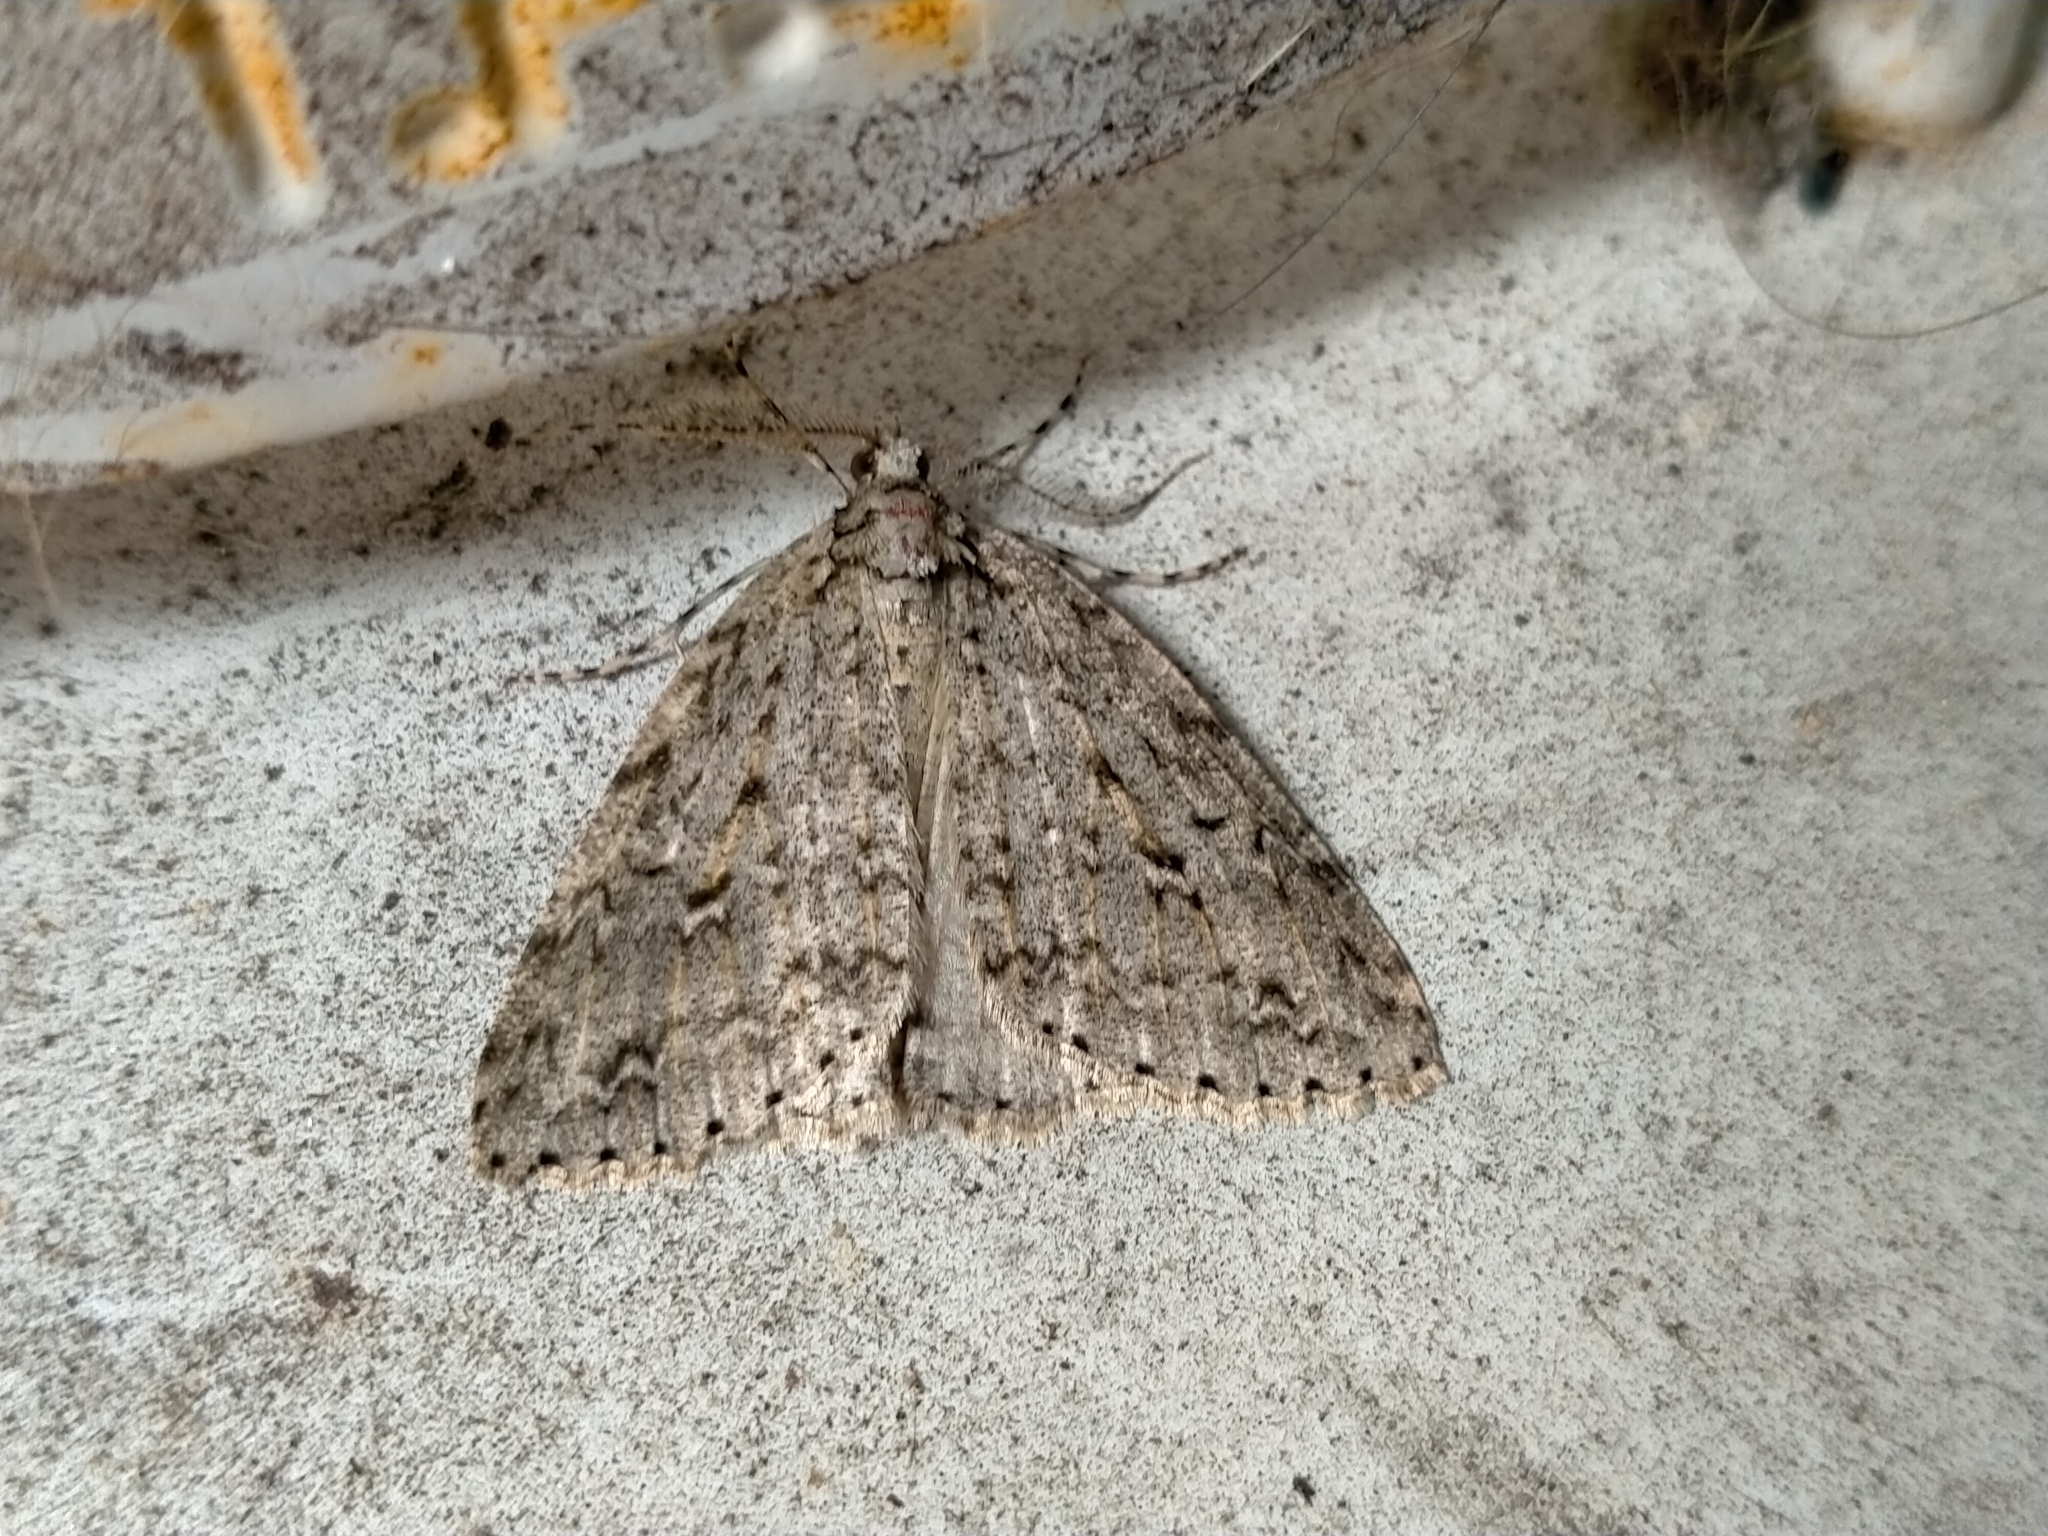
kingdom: Animalia
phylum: Arthropoda
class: Insecta
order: Lepidoptera
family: Geometridae
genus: Pseudocoremia
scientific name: Pseudocoremia rudisata
